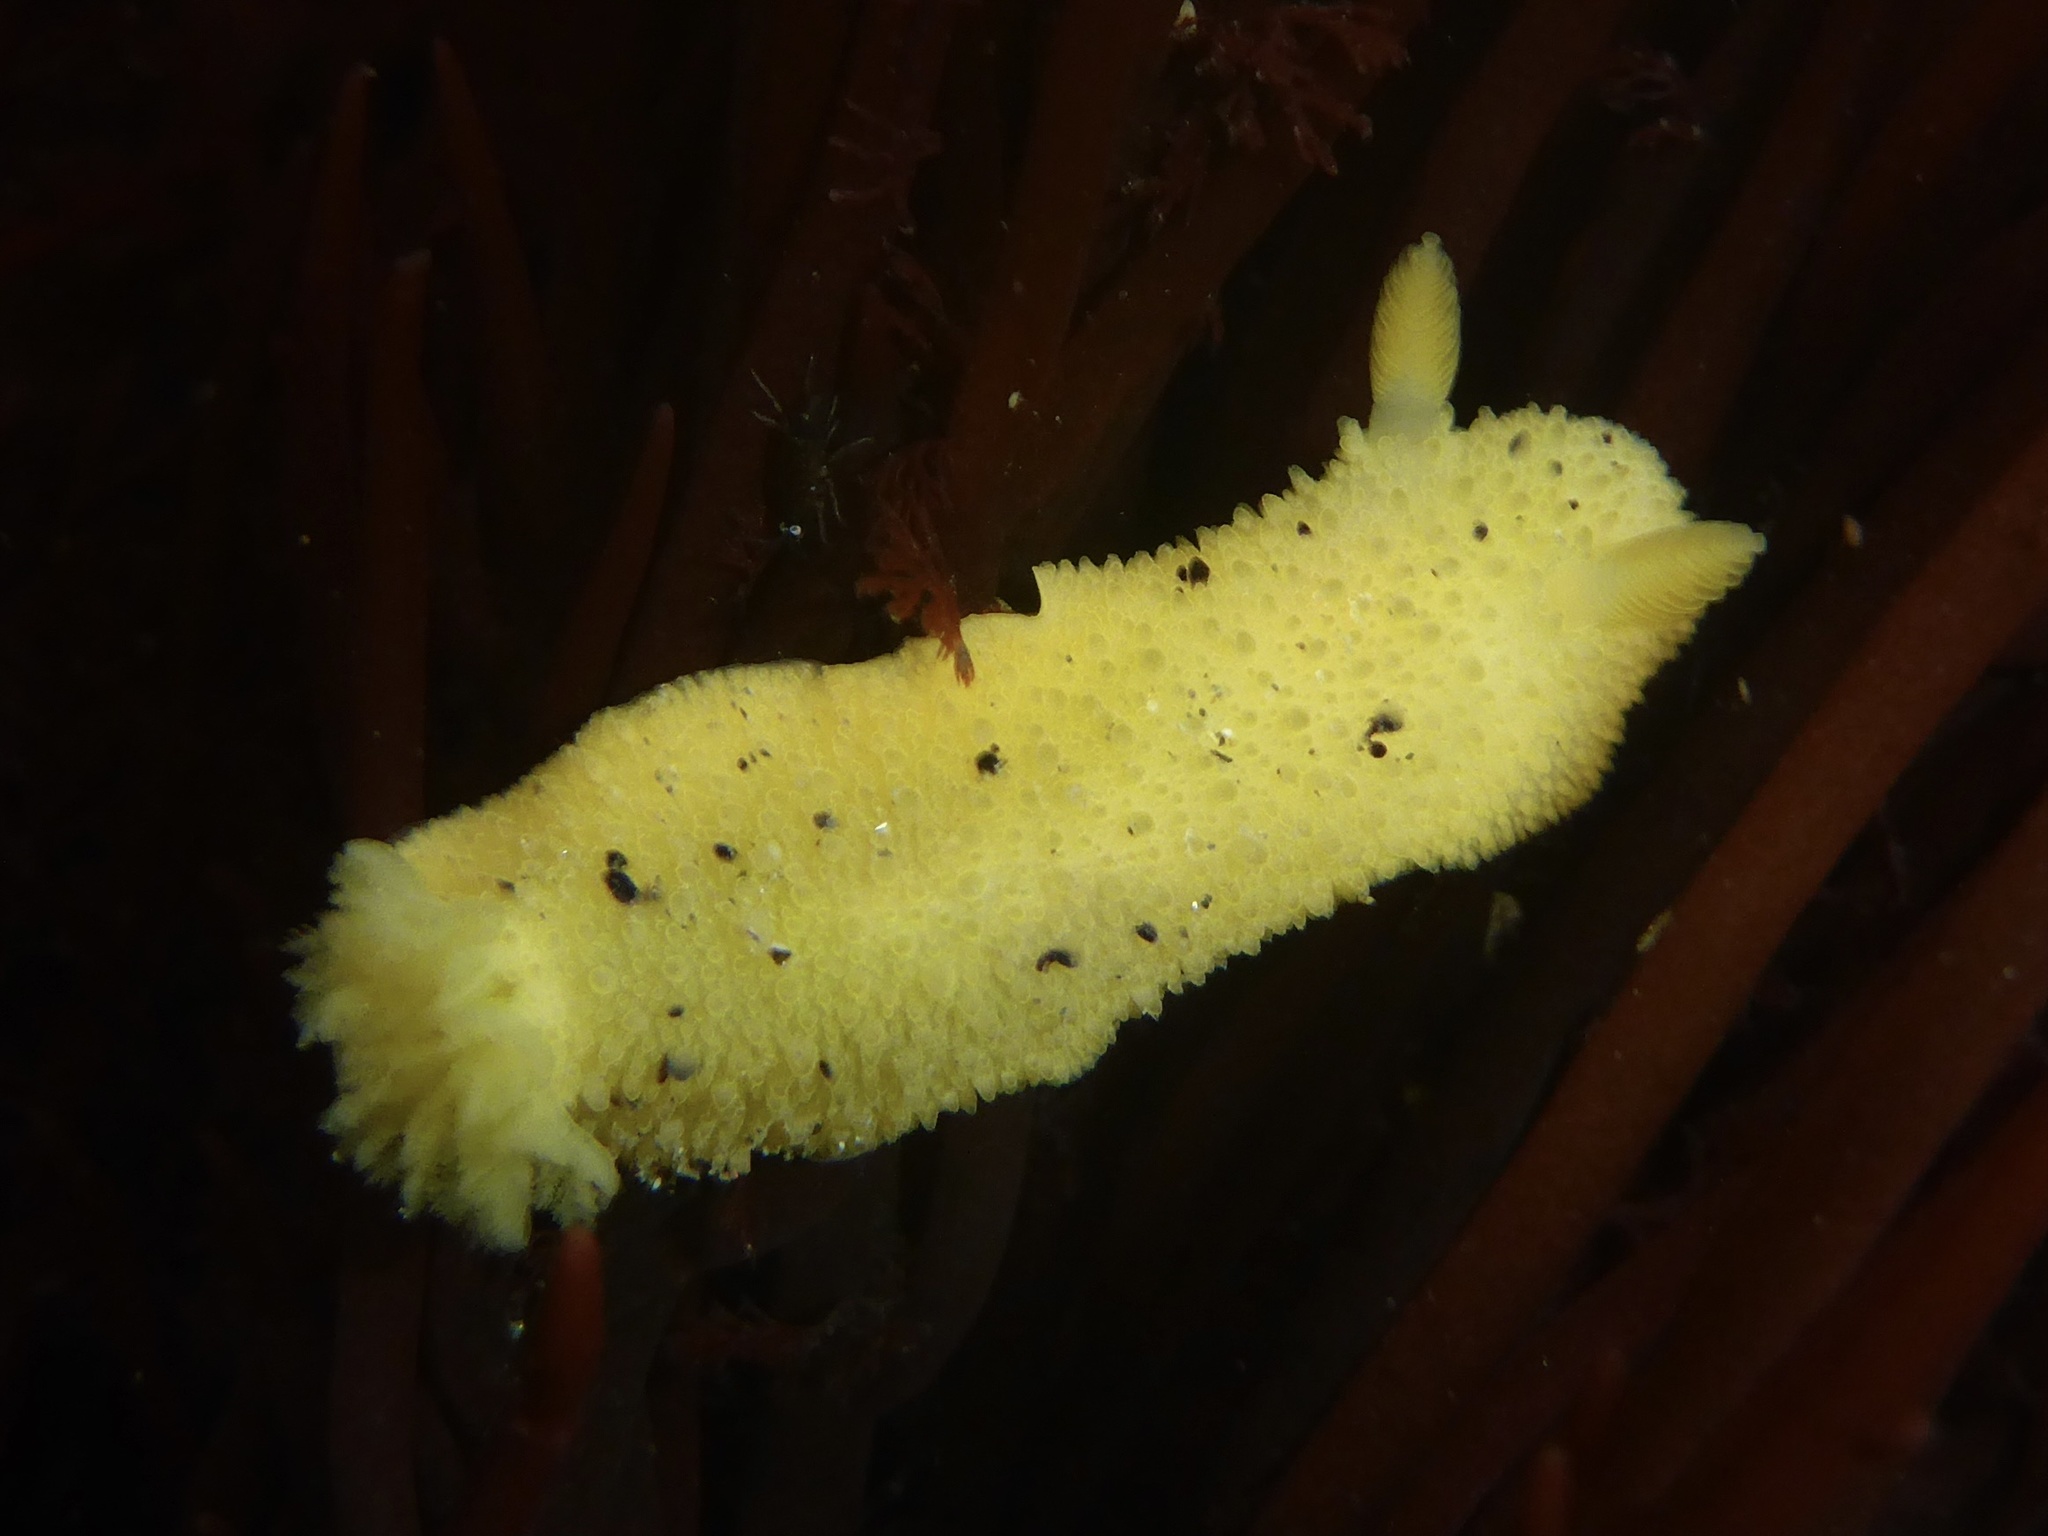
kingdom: Animalia
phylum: Mollusca
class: Gastropoda
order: Nudibranchia
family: Dorididae
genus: Doris
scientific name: Doris montereyensis
